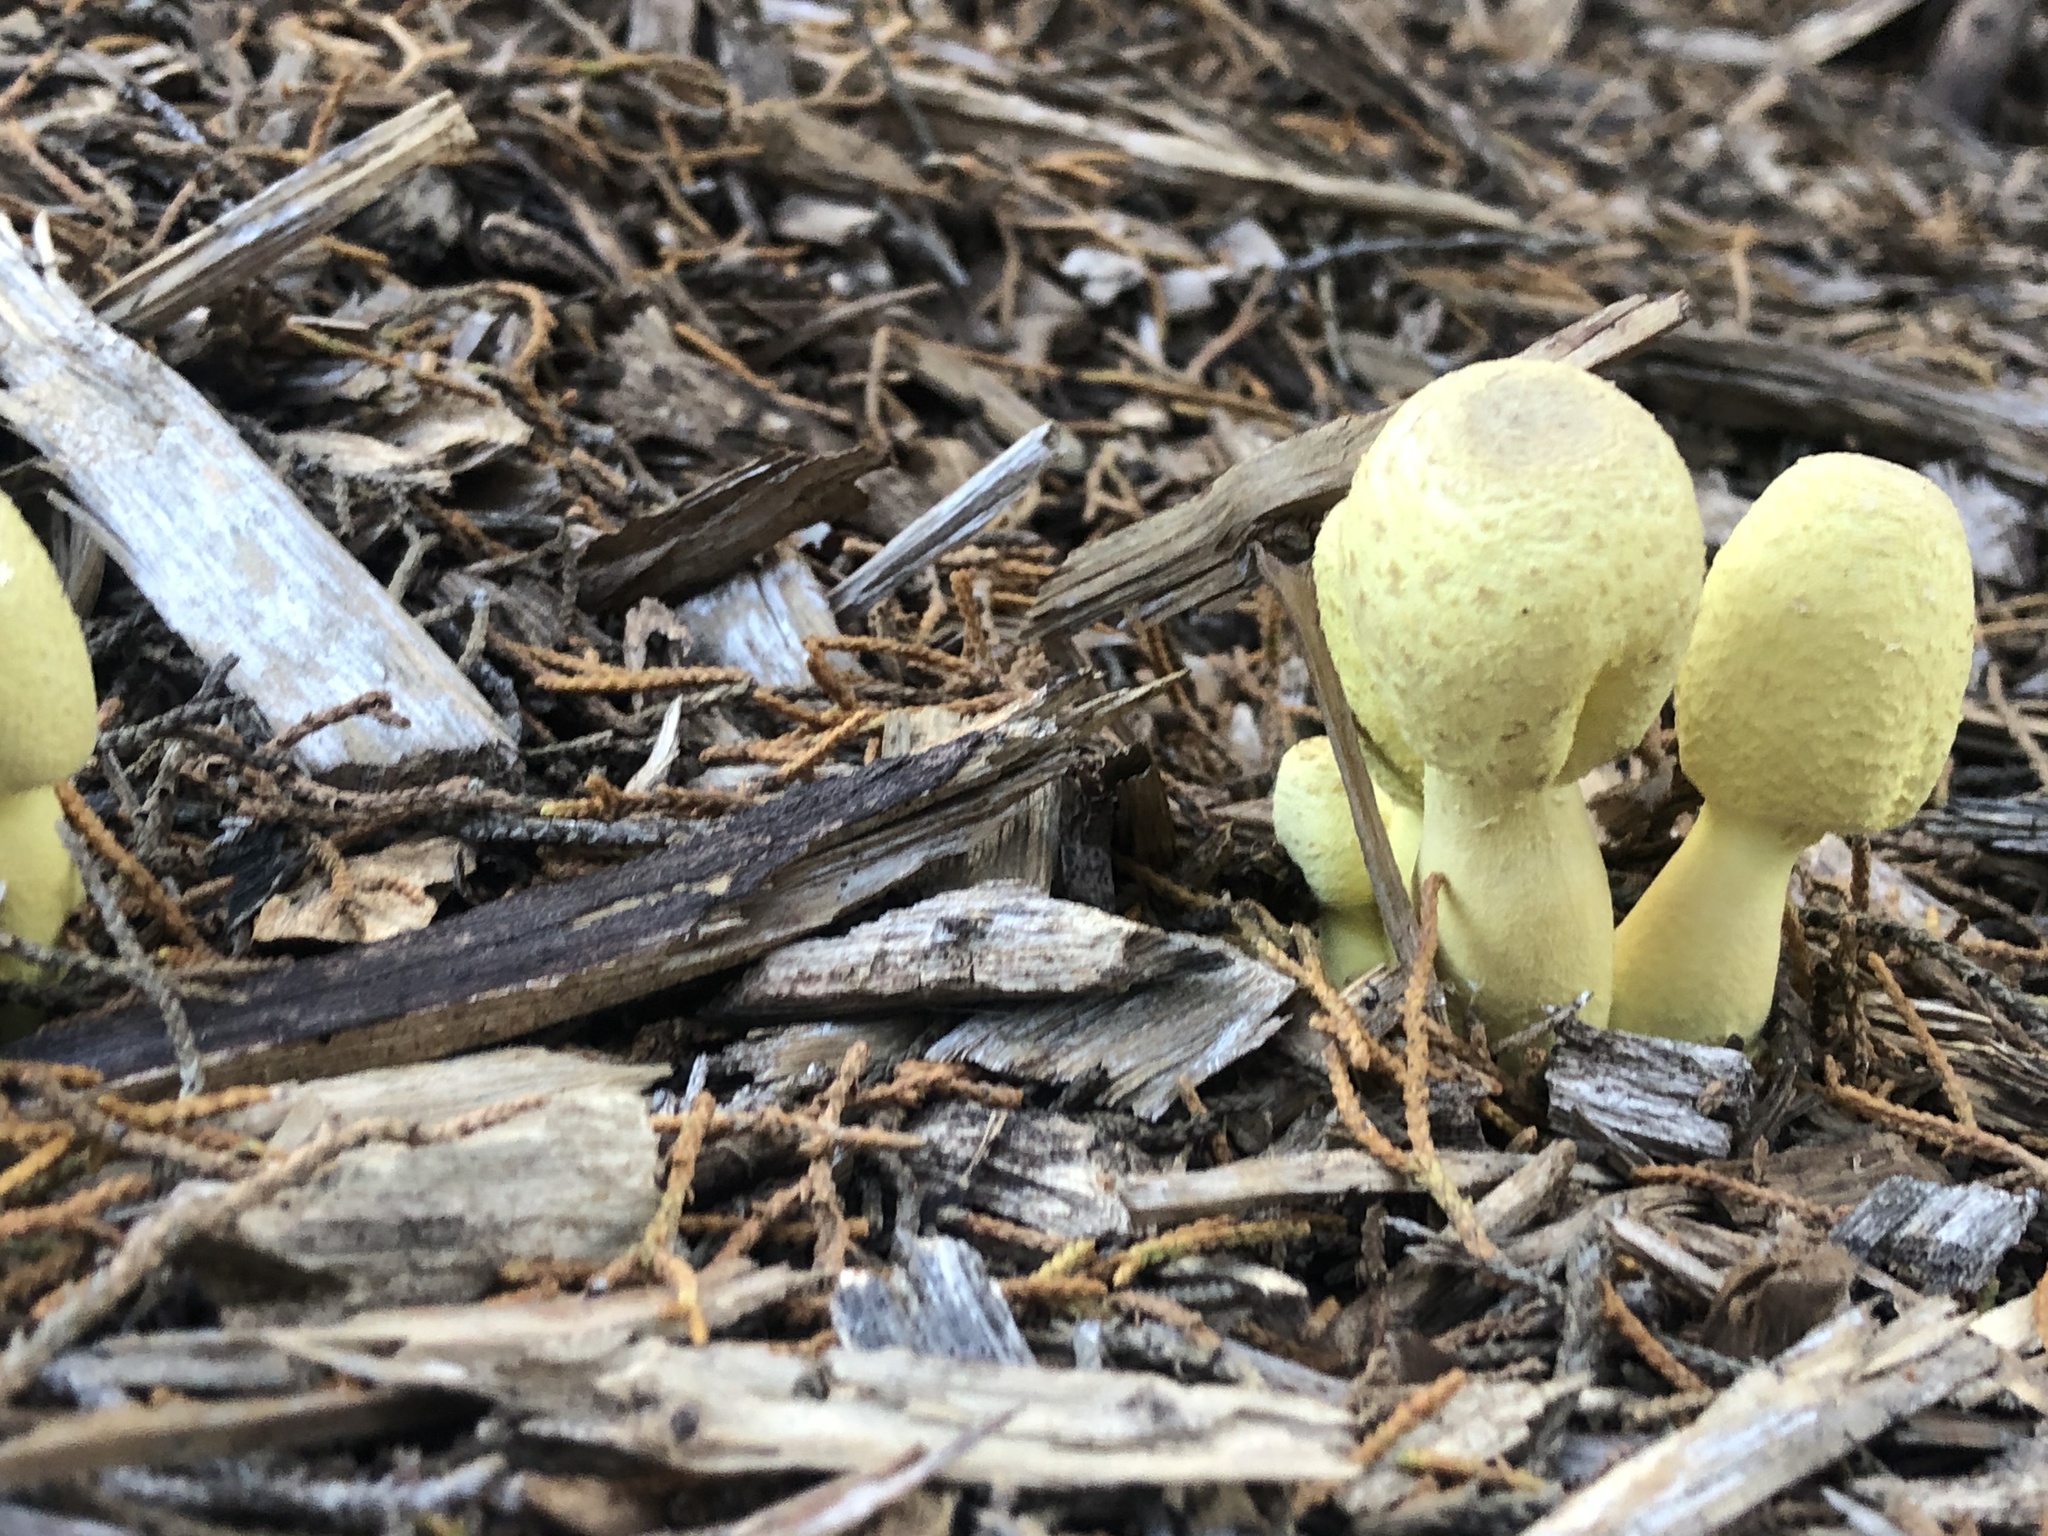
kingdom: Fungi
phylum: Basidiomycota
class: Agaricomycetes
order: Agaricales
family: Agaricaceae
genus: Leucocoprinus
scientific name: Leucocoprinus birnbaumii
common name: Plantpot dapperling
